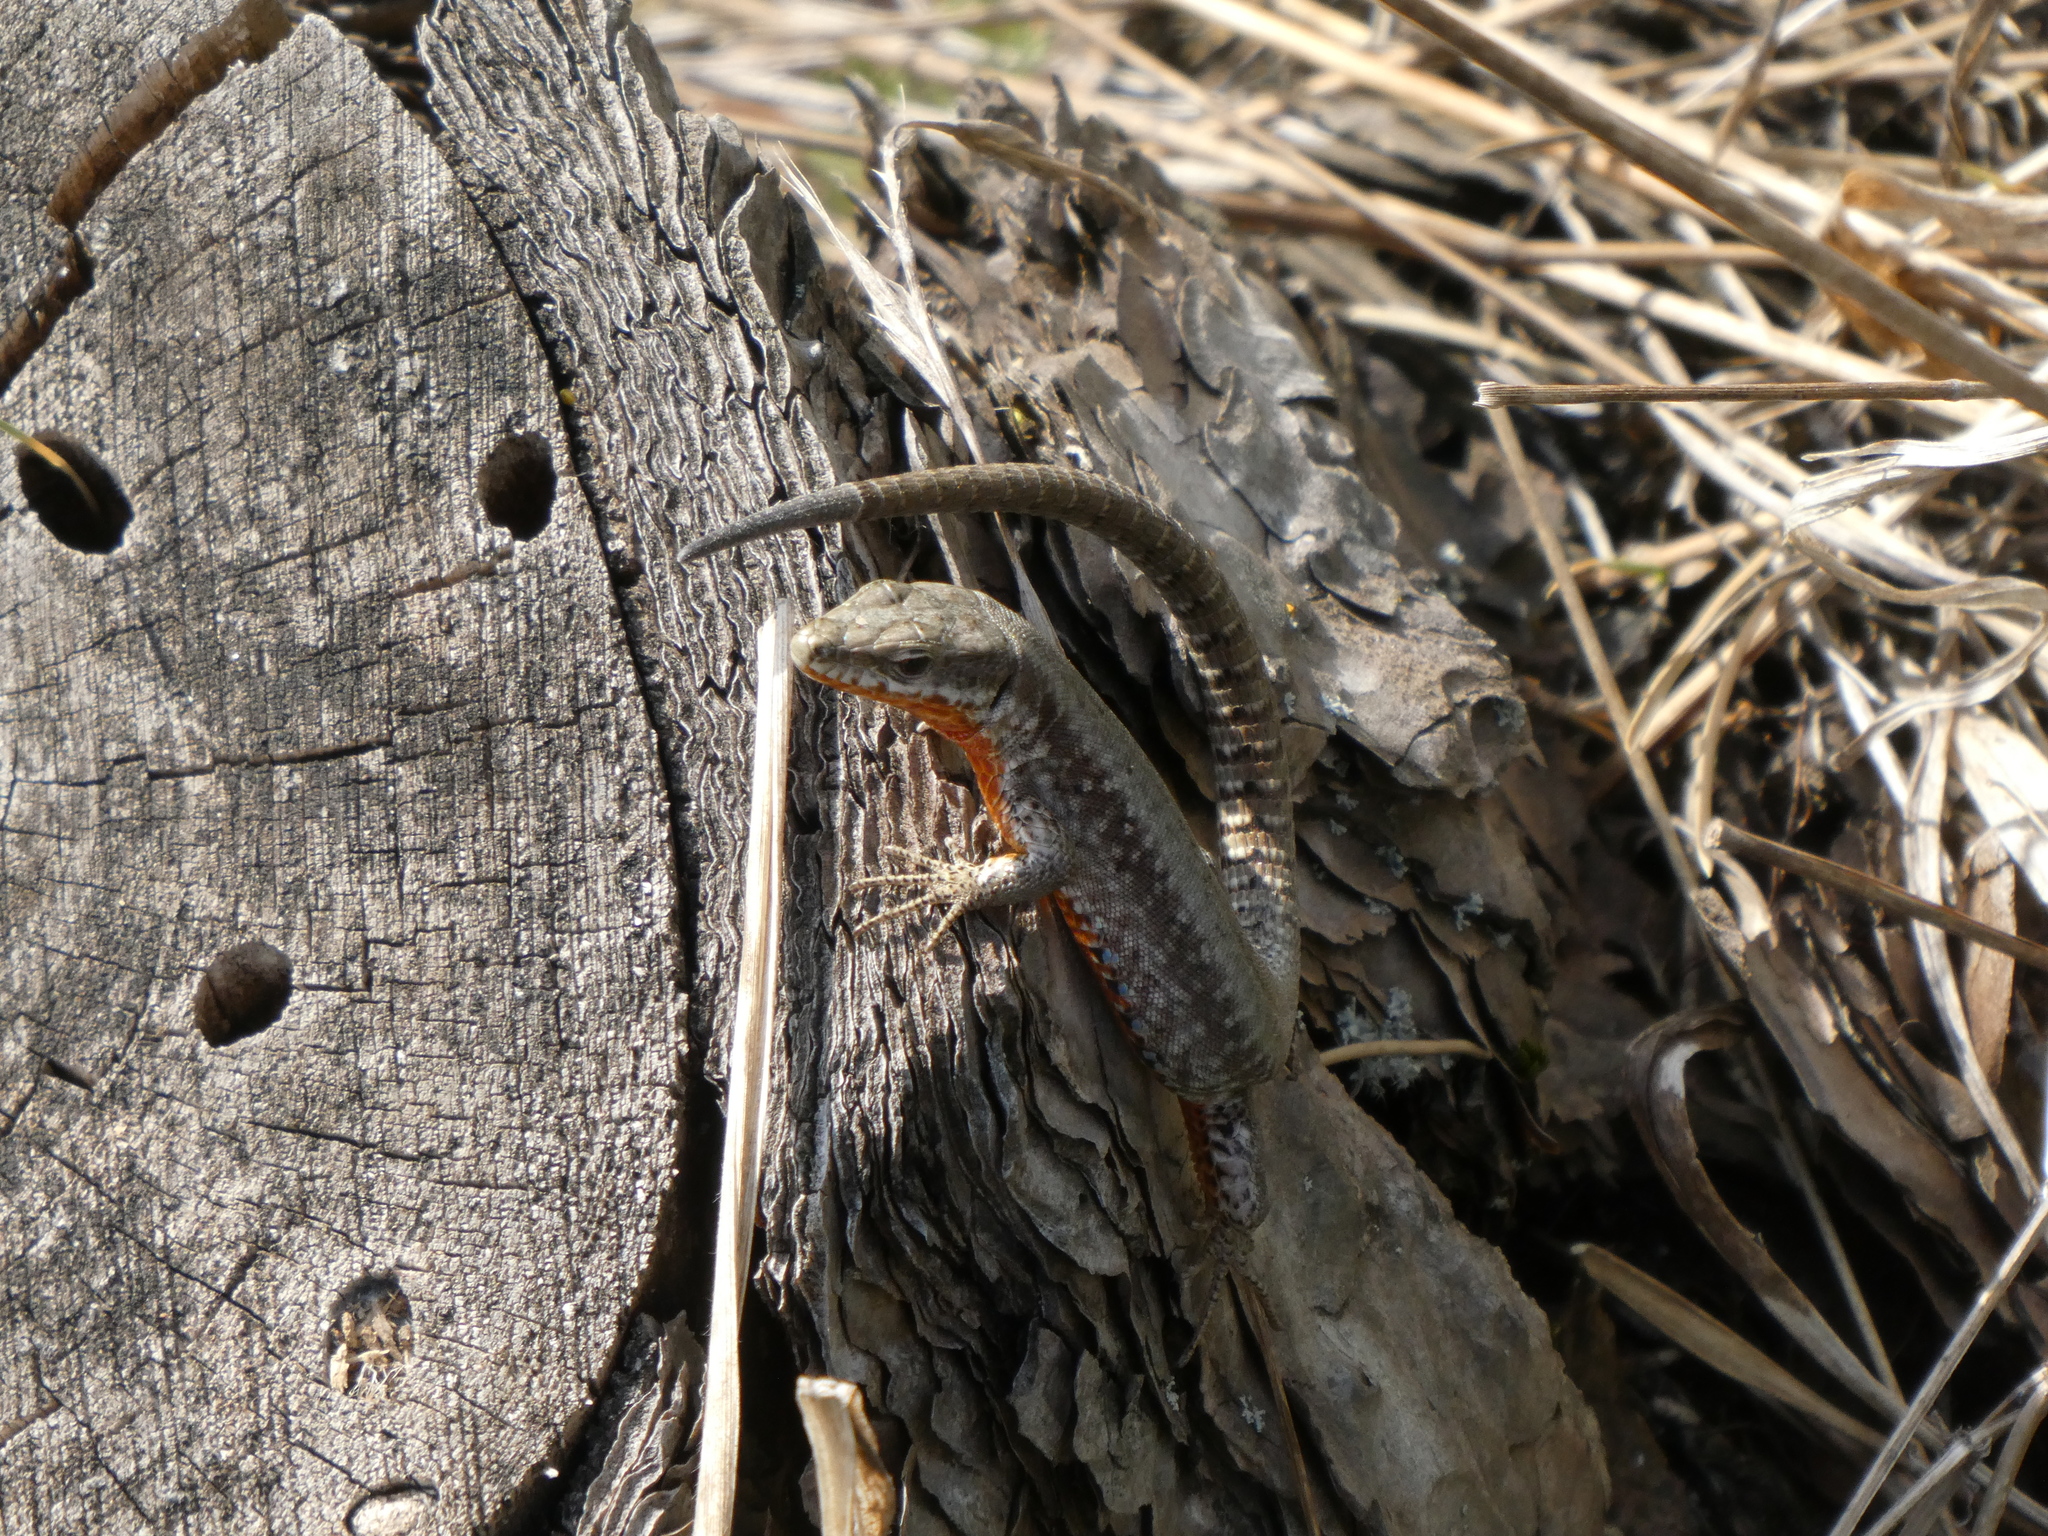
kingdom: Animalia
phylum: Chordata
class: Squamata
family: Lacertidae
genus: Podarcis
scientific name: Podarcis muralis
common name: Common wall lizard
